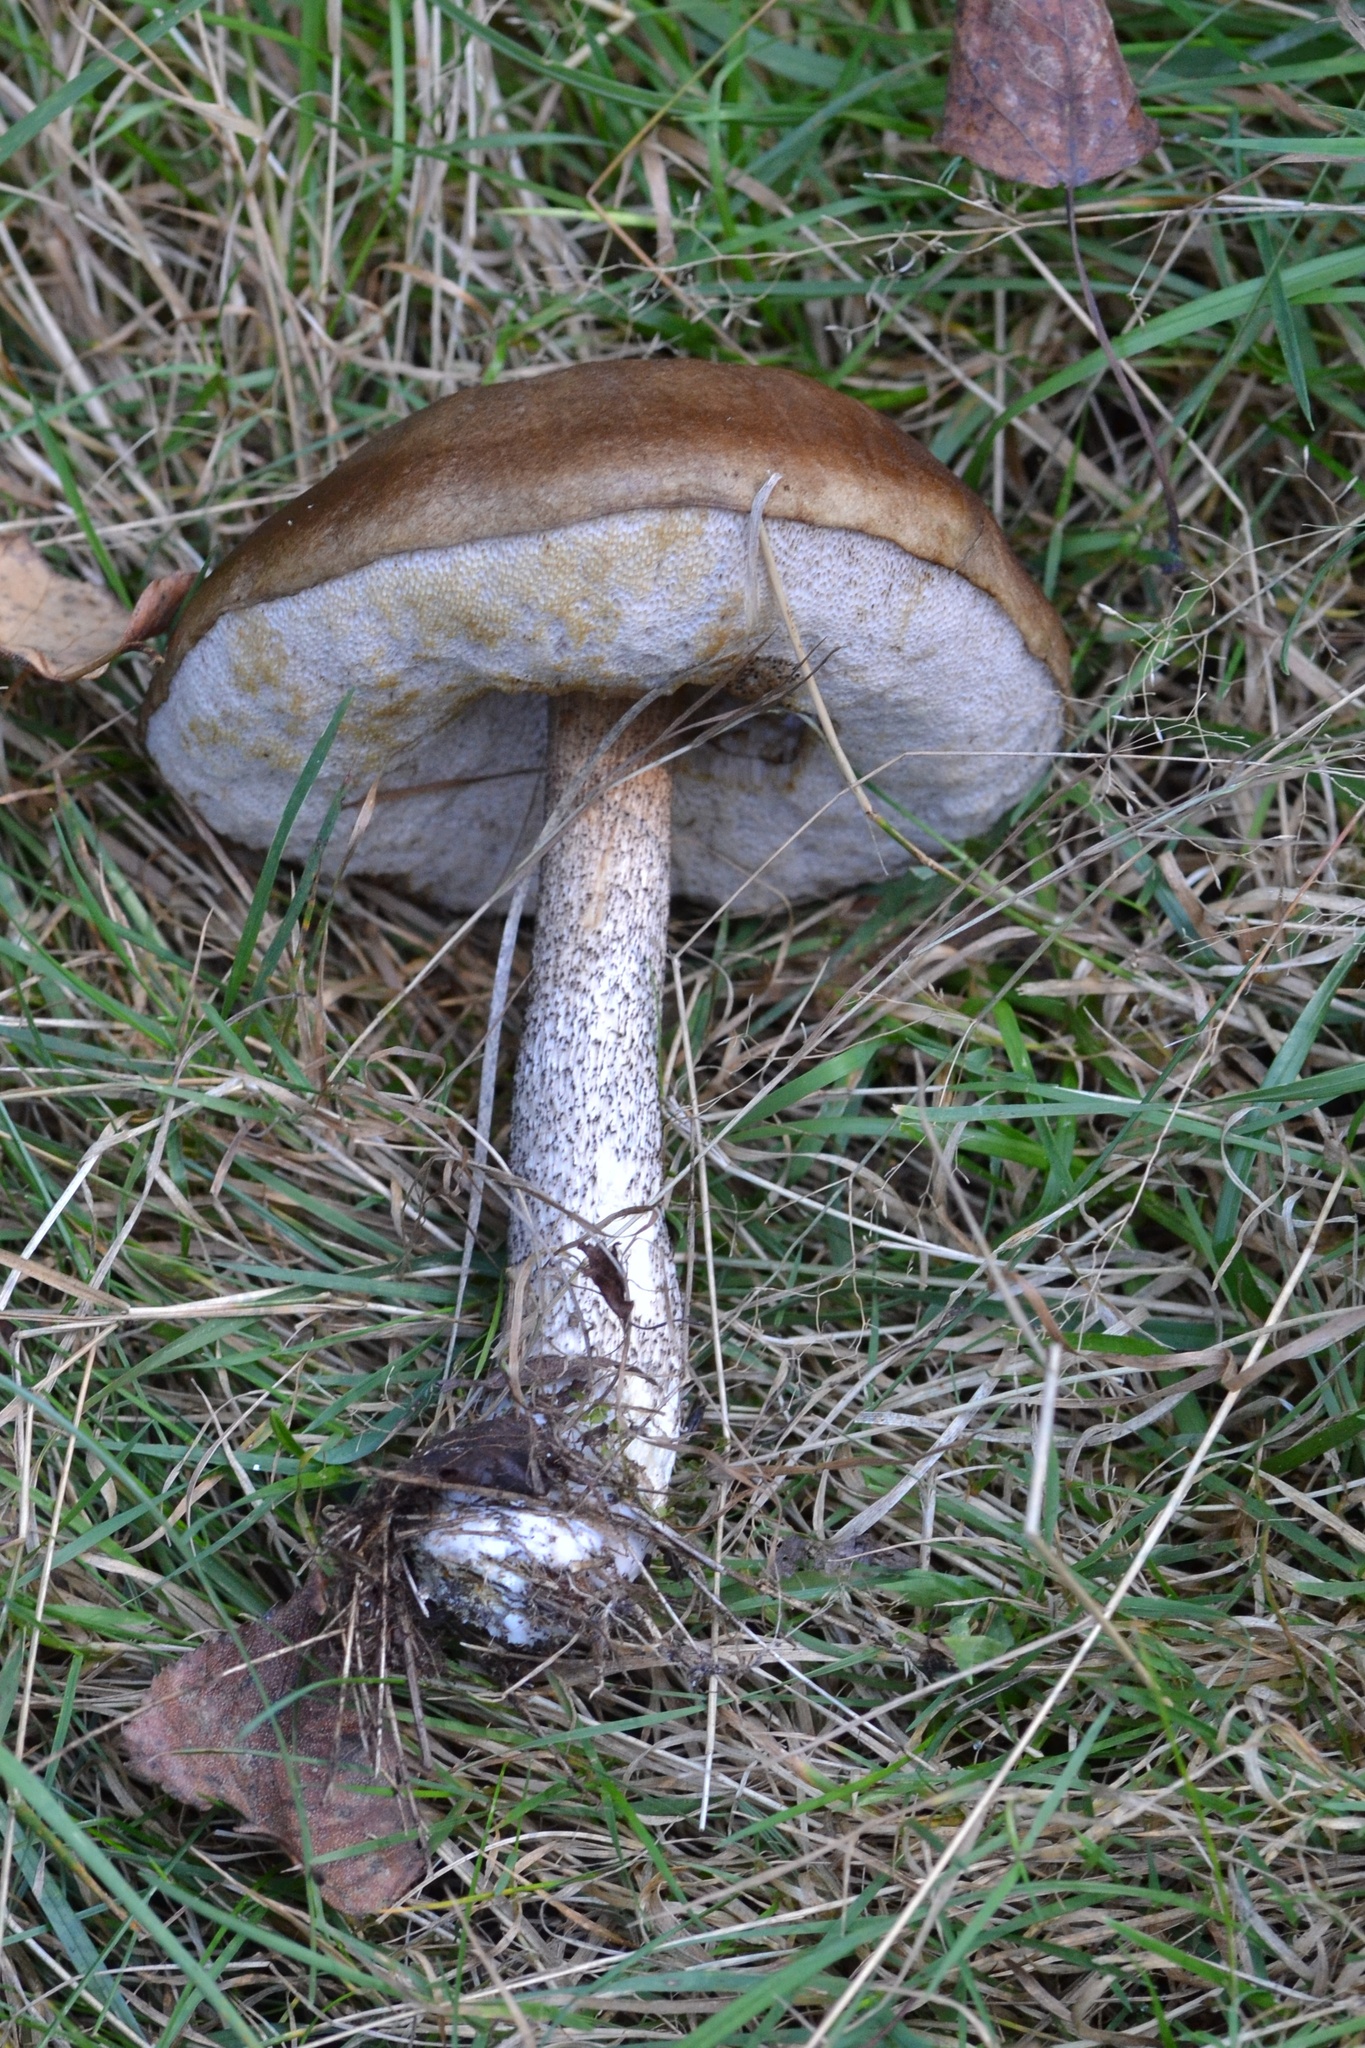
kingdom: Fungi
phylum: Basidiomycota
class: Agaricomycetes
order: Boletales
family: Boletaceae
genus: Leccinum
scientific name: Leccinum scabrum
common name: Blushing bolete
